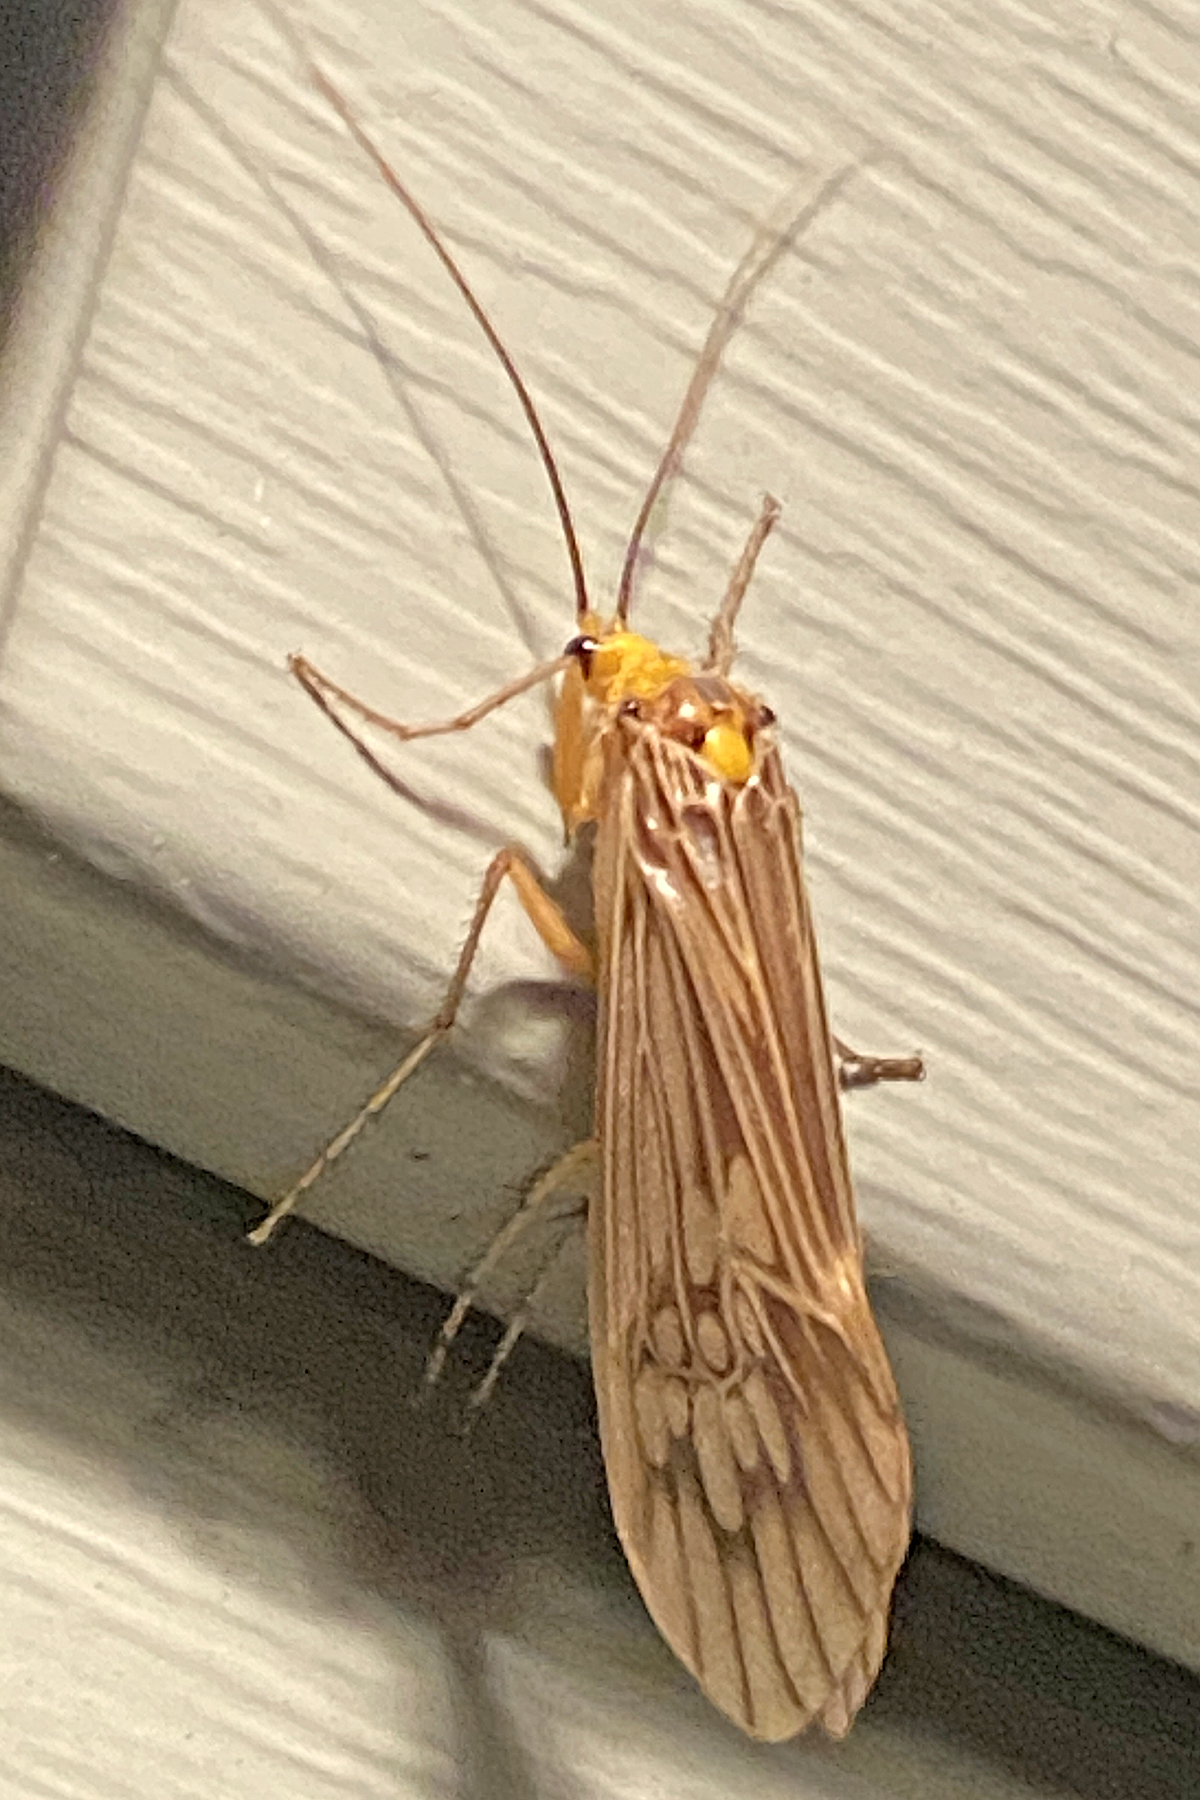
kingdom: Animalia
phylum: Arthropoda
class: Insecta
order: Trichoptera
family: Limnephilidae
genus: Hydatophylax
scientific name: Hydatophylax argus
